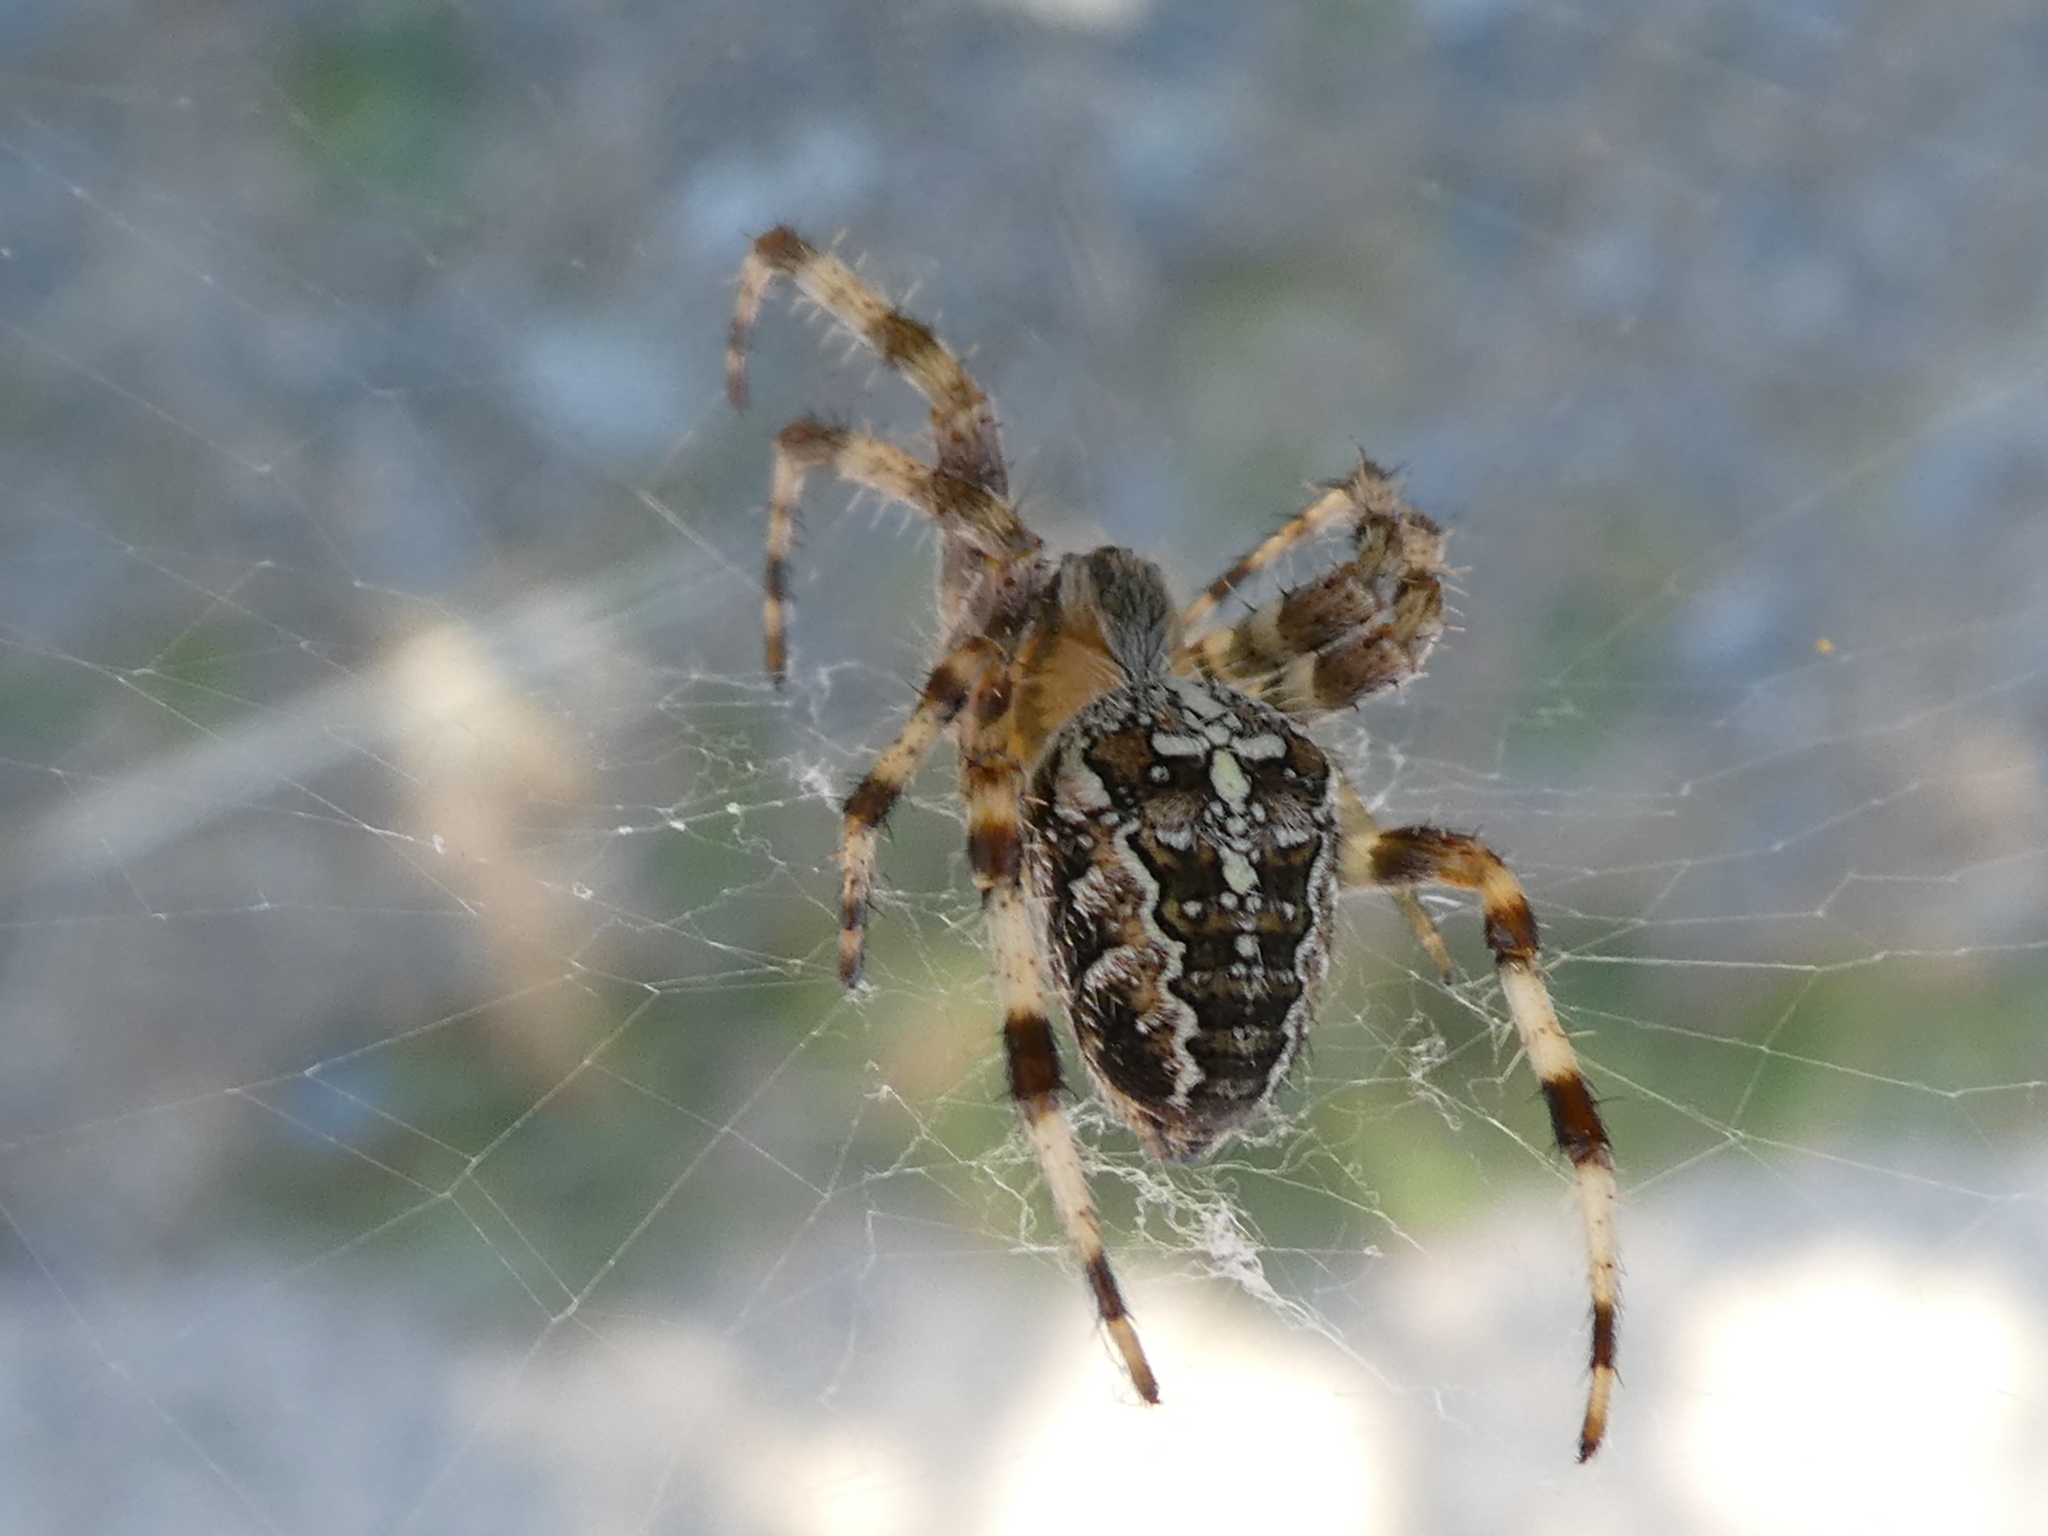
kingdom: Animalia
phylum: Arthropoda
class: Arachnida
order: Araneae
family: Araneidae
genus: Araneus
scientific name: Araneus diadematus
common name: Cross orbweaver
